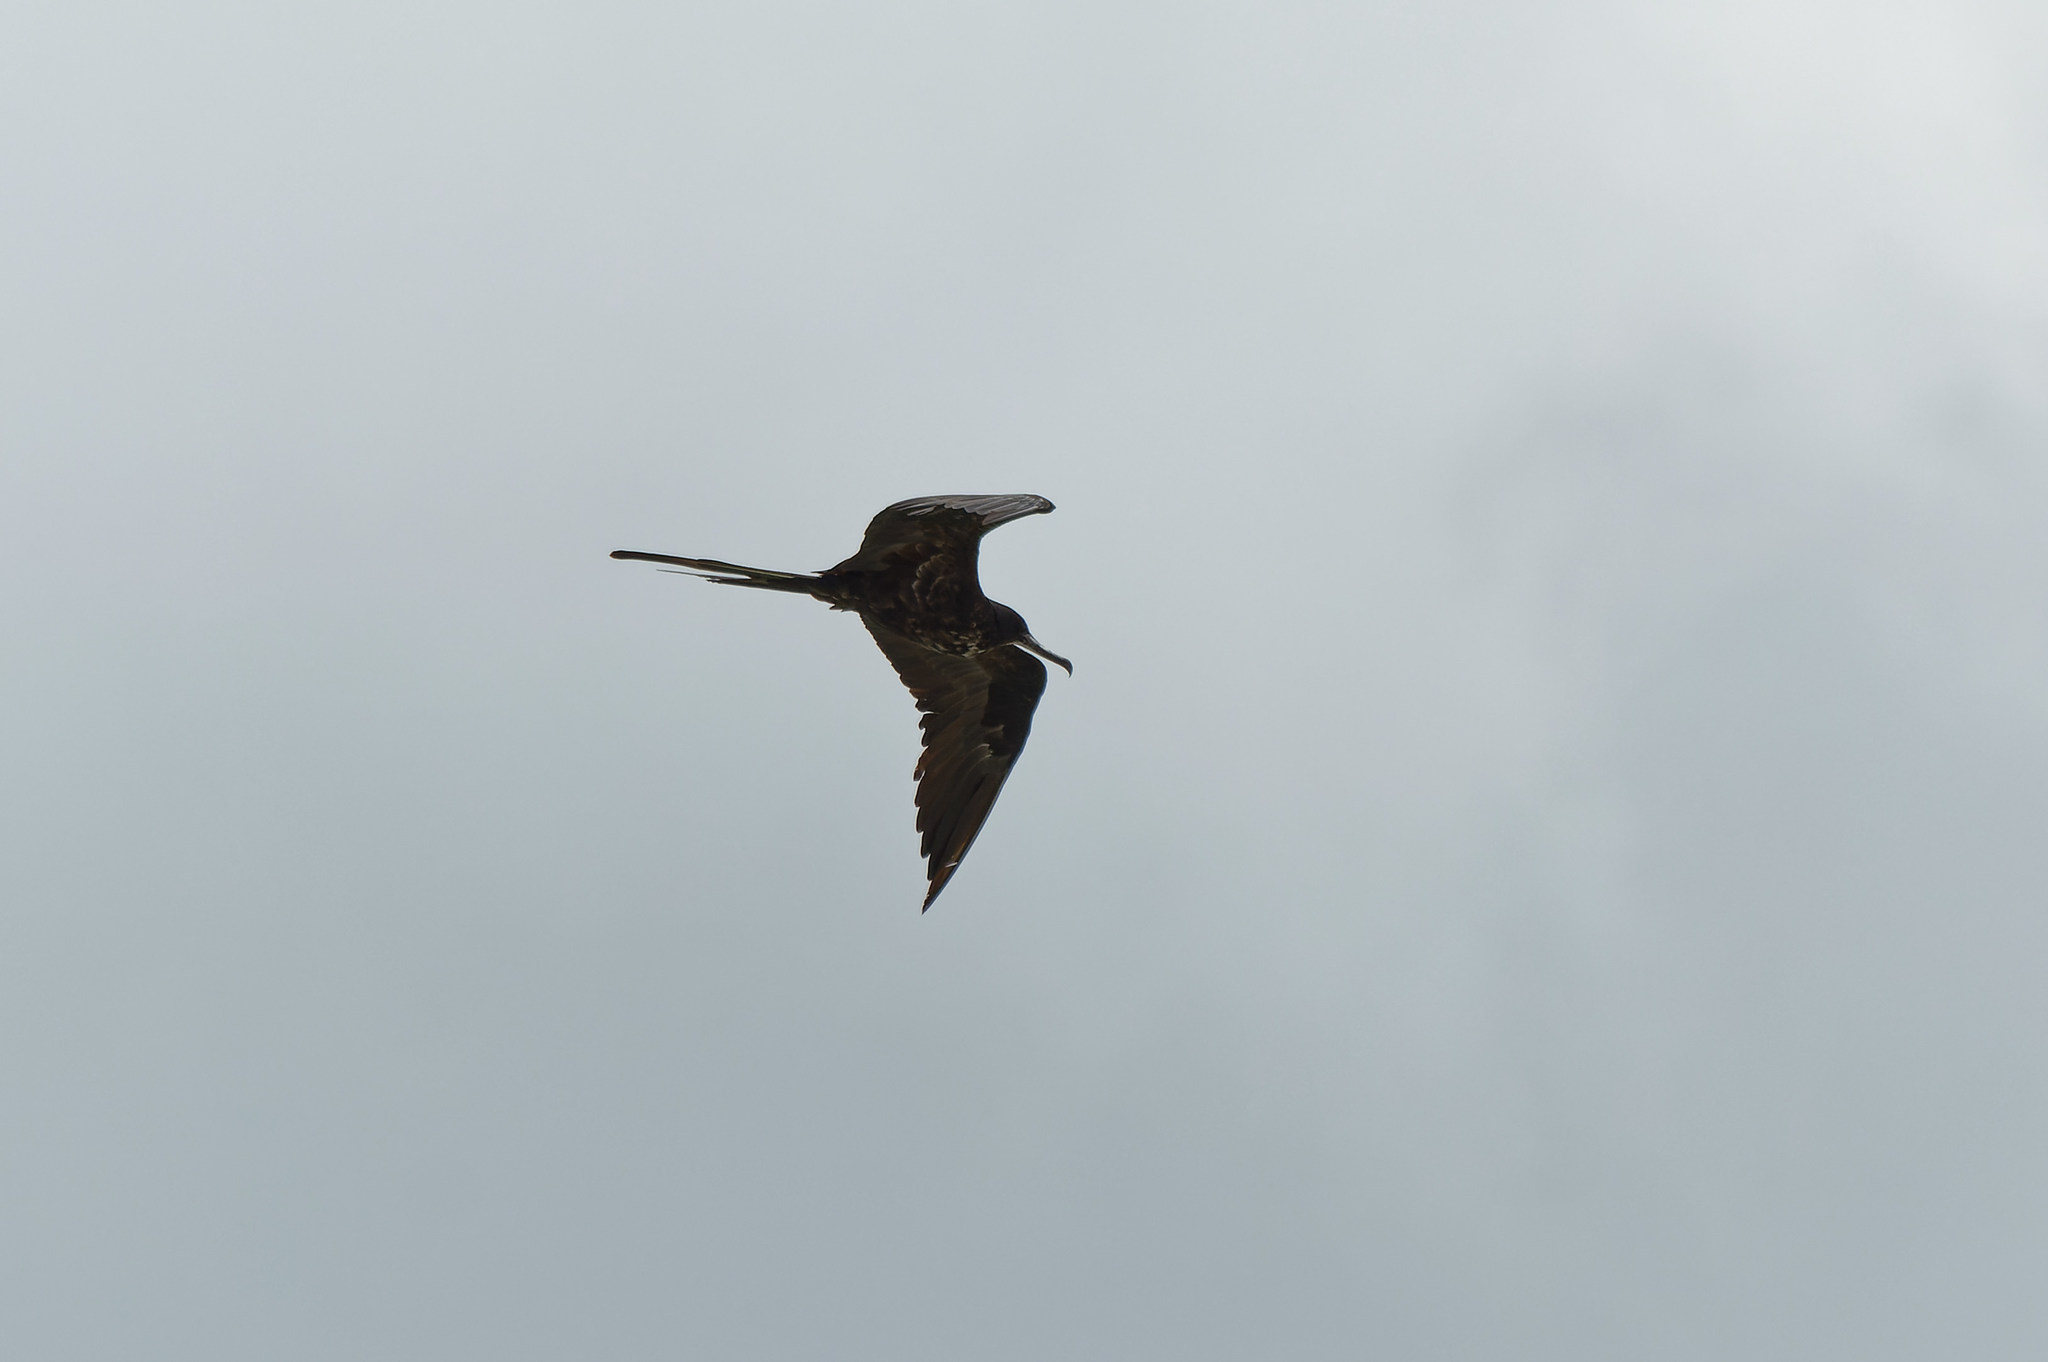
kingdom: Animalia
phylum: Chordata
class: Aves
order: Suliformes
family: Fregatidae
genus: Fregata
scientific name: Fregata magnificens
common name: Magnificent frigatebird
